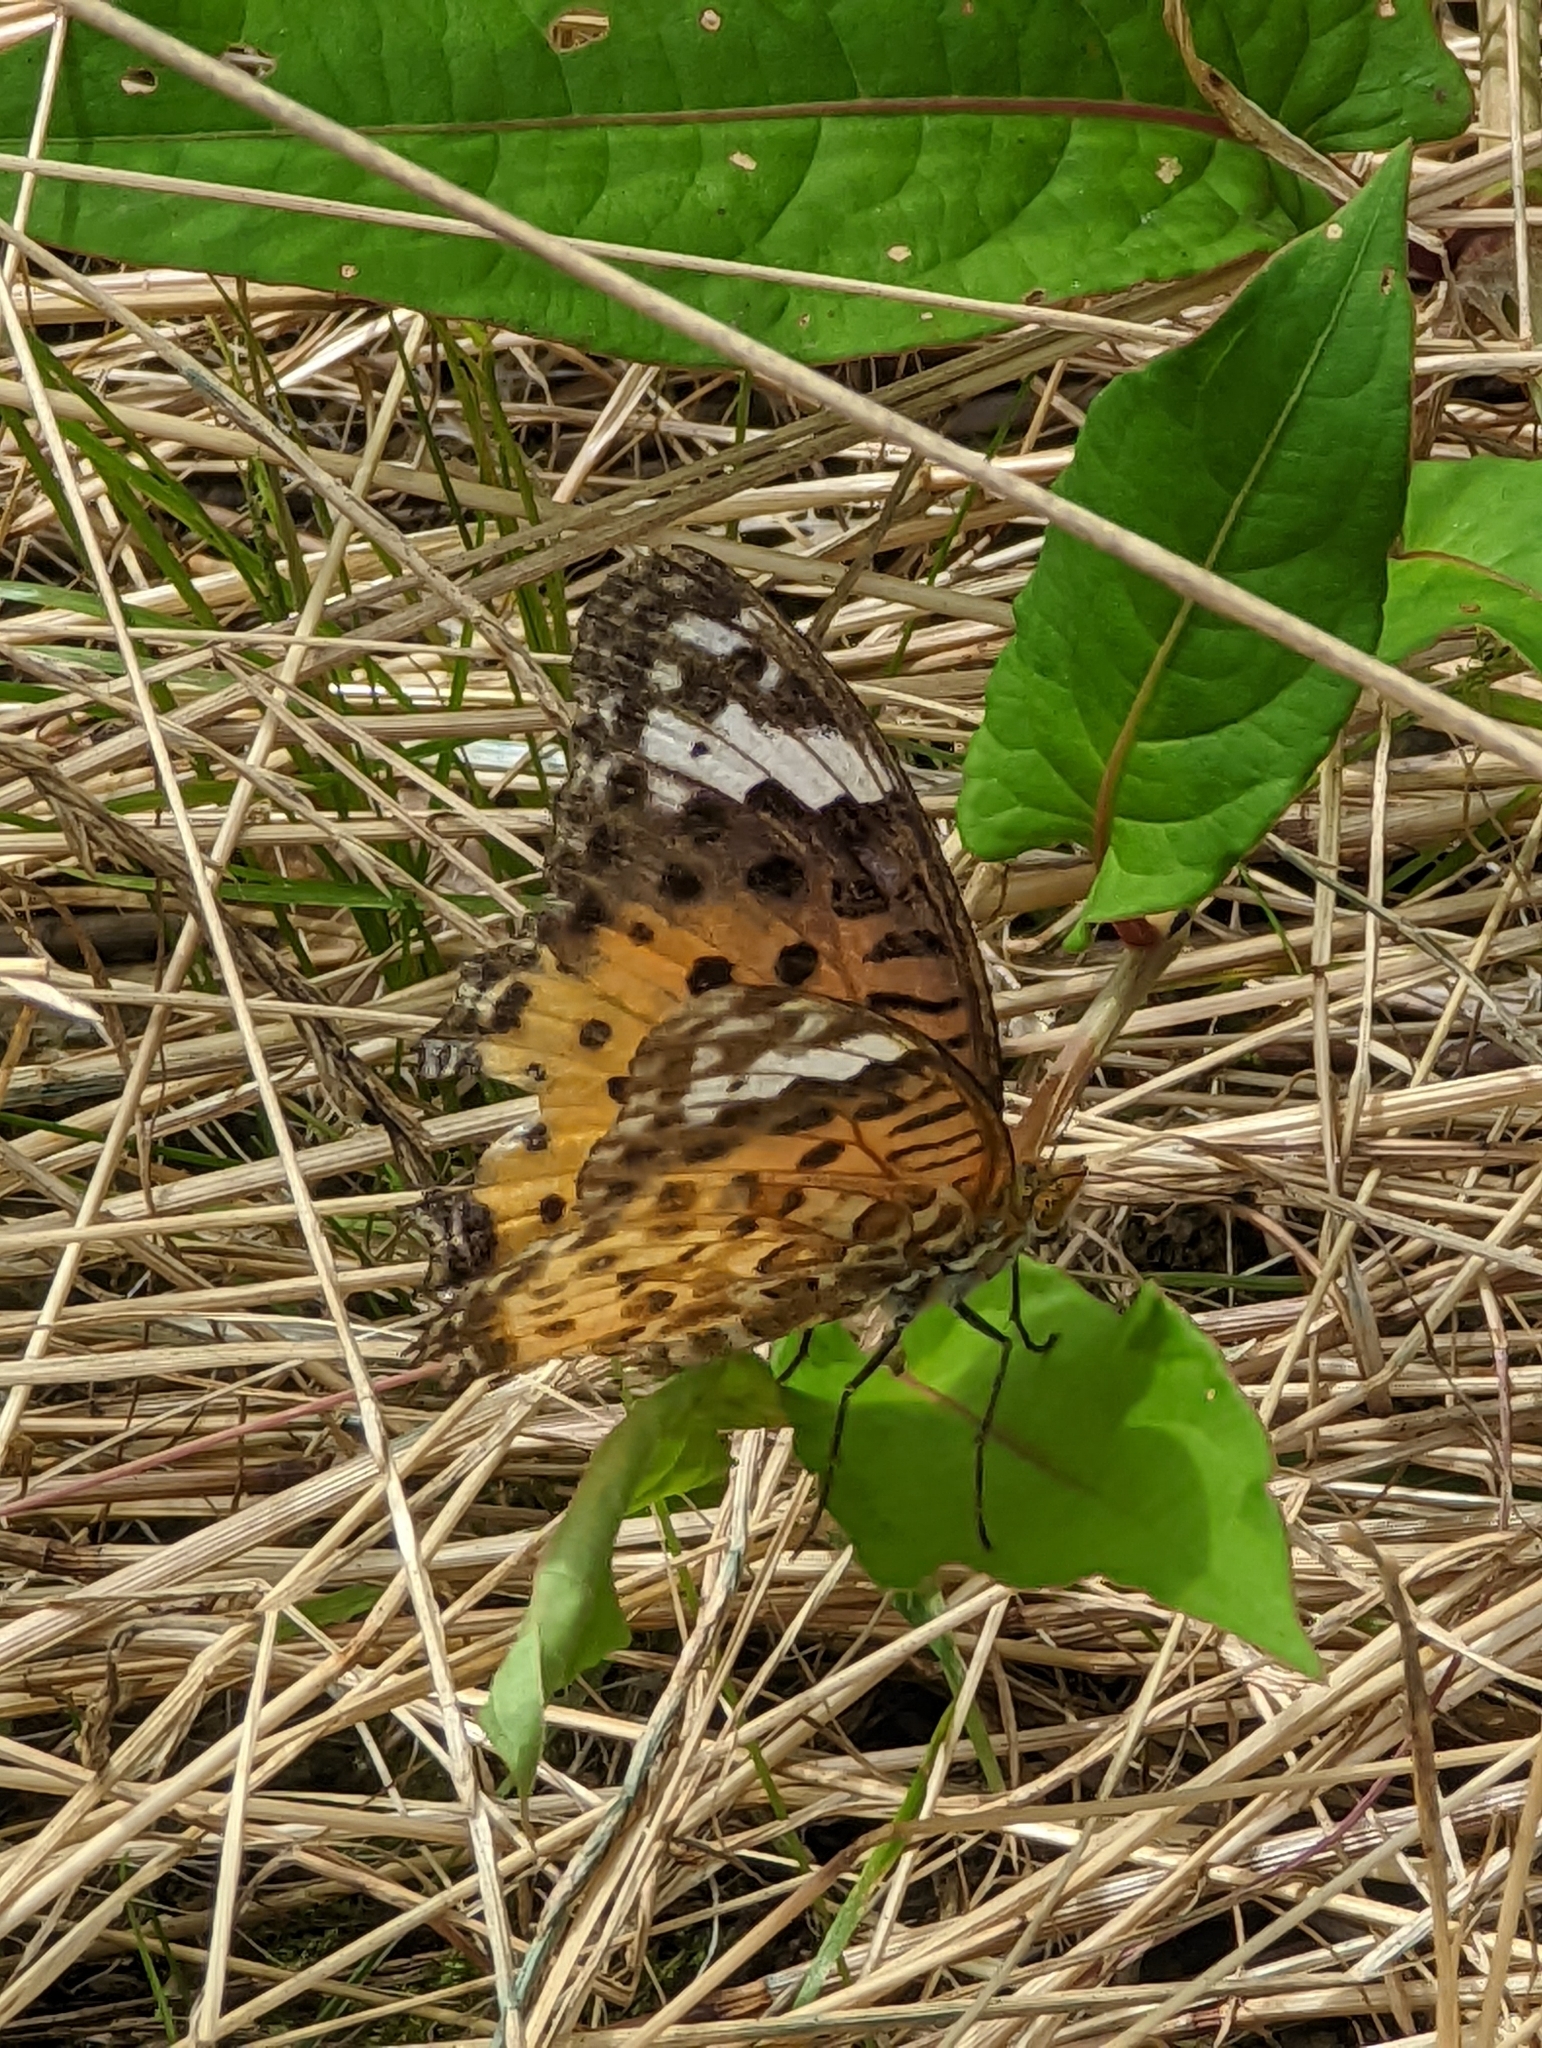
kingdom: Animalia
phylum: Arthropoda
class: Insecta
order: Lepidoptera
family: Nymphalidae
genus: Argynnis
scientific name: Argynnis hyperbius
